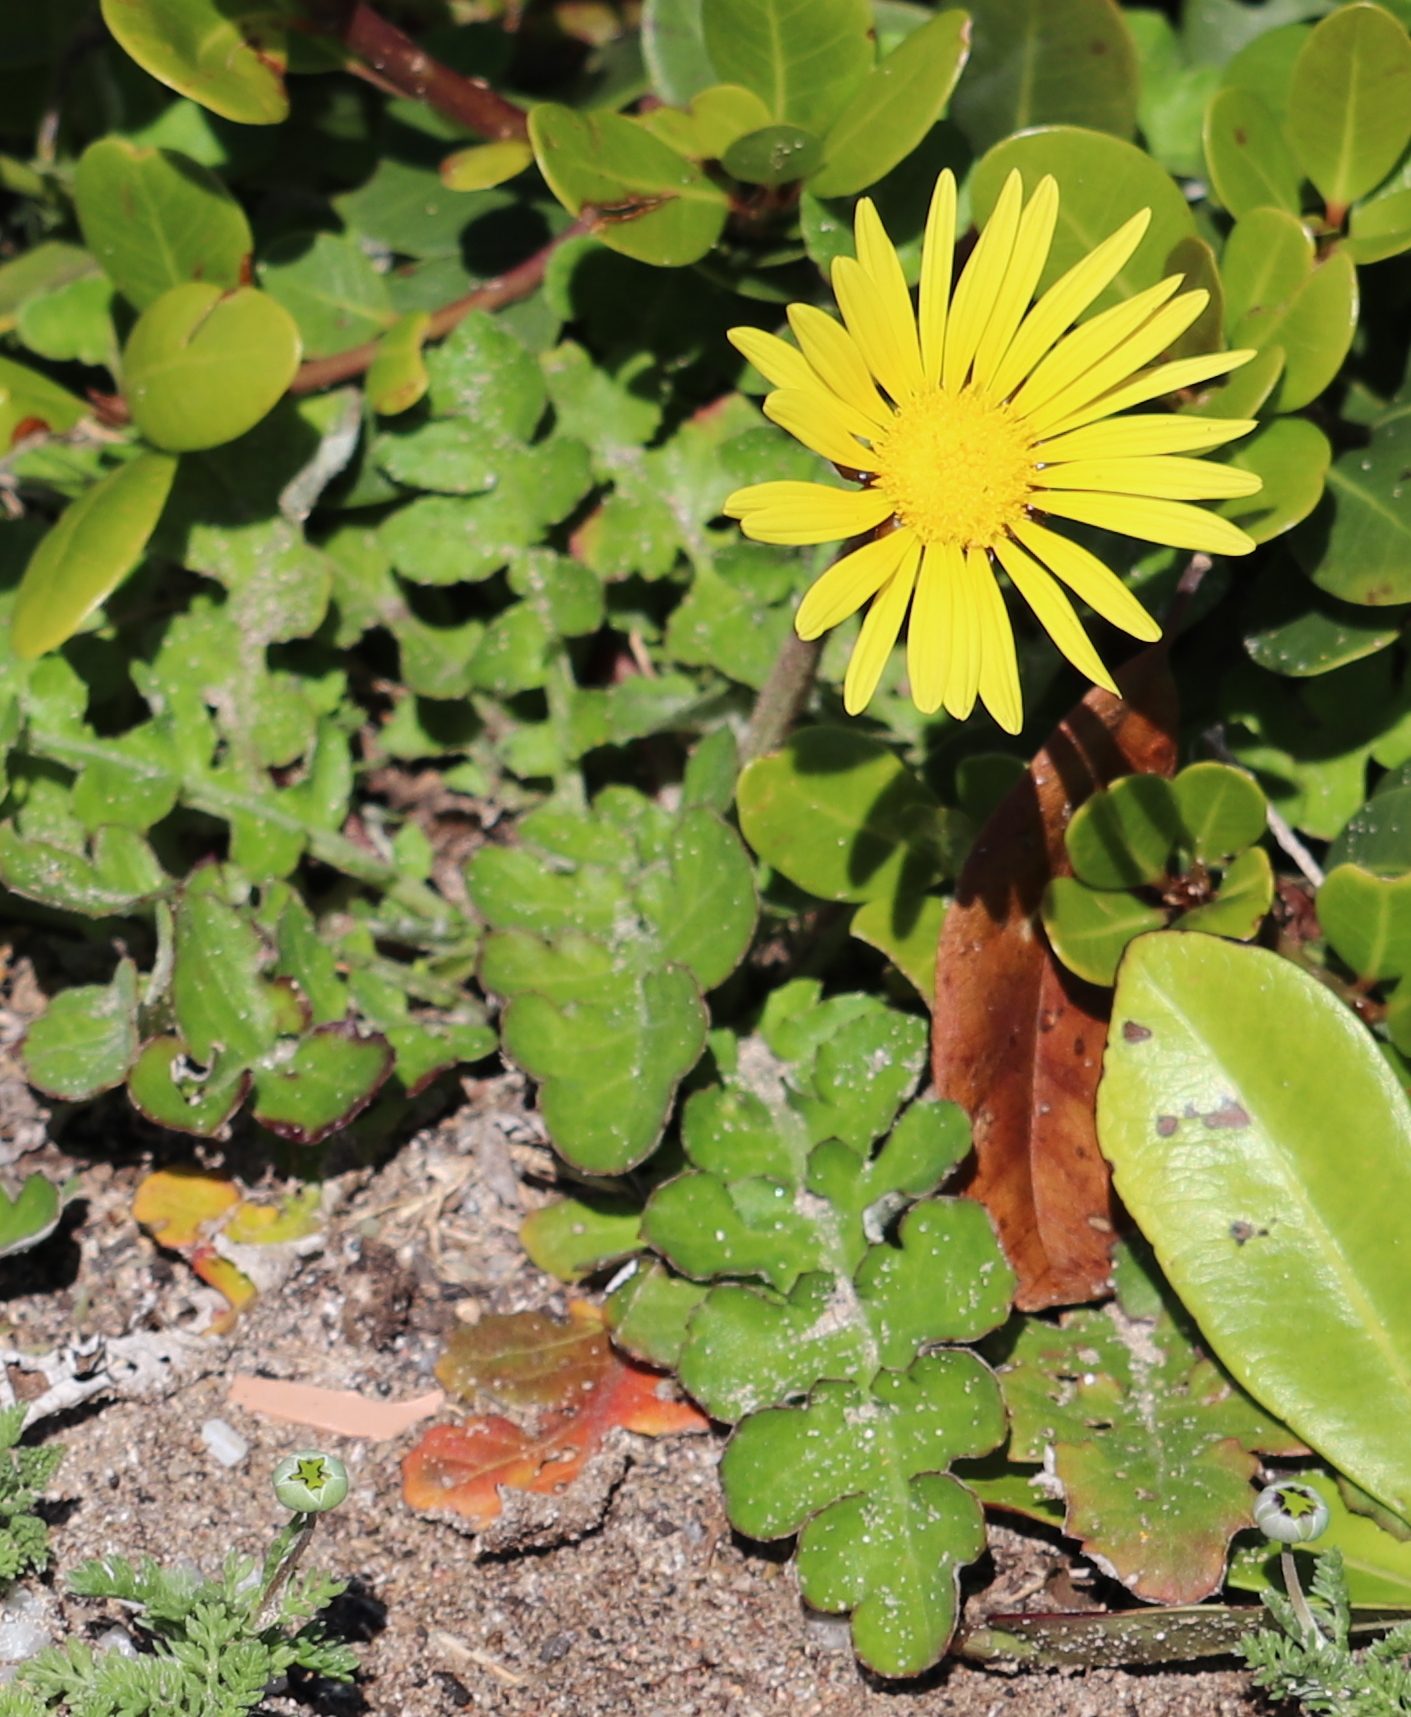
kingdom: Plantae
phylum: Tracheophyta
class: Magnoliopsida
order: Asterales
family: Asteraceae
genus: Arctotheca
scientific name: Arctotheca prostrata
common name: Capeweed
